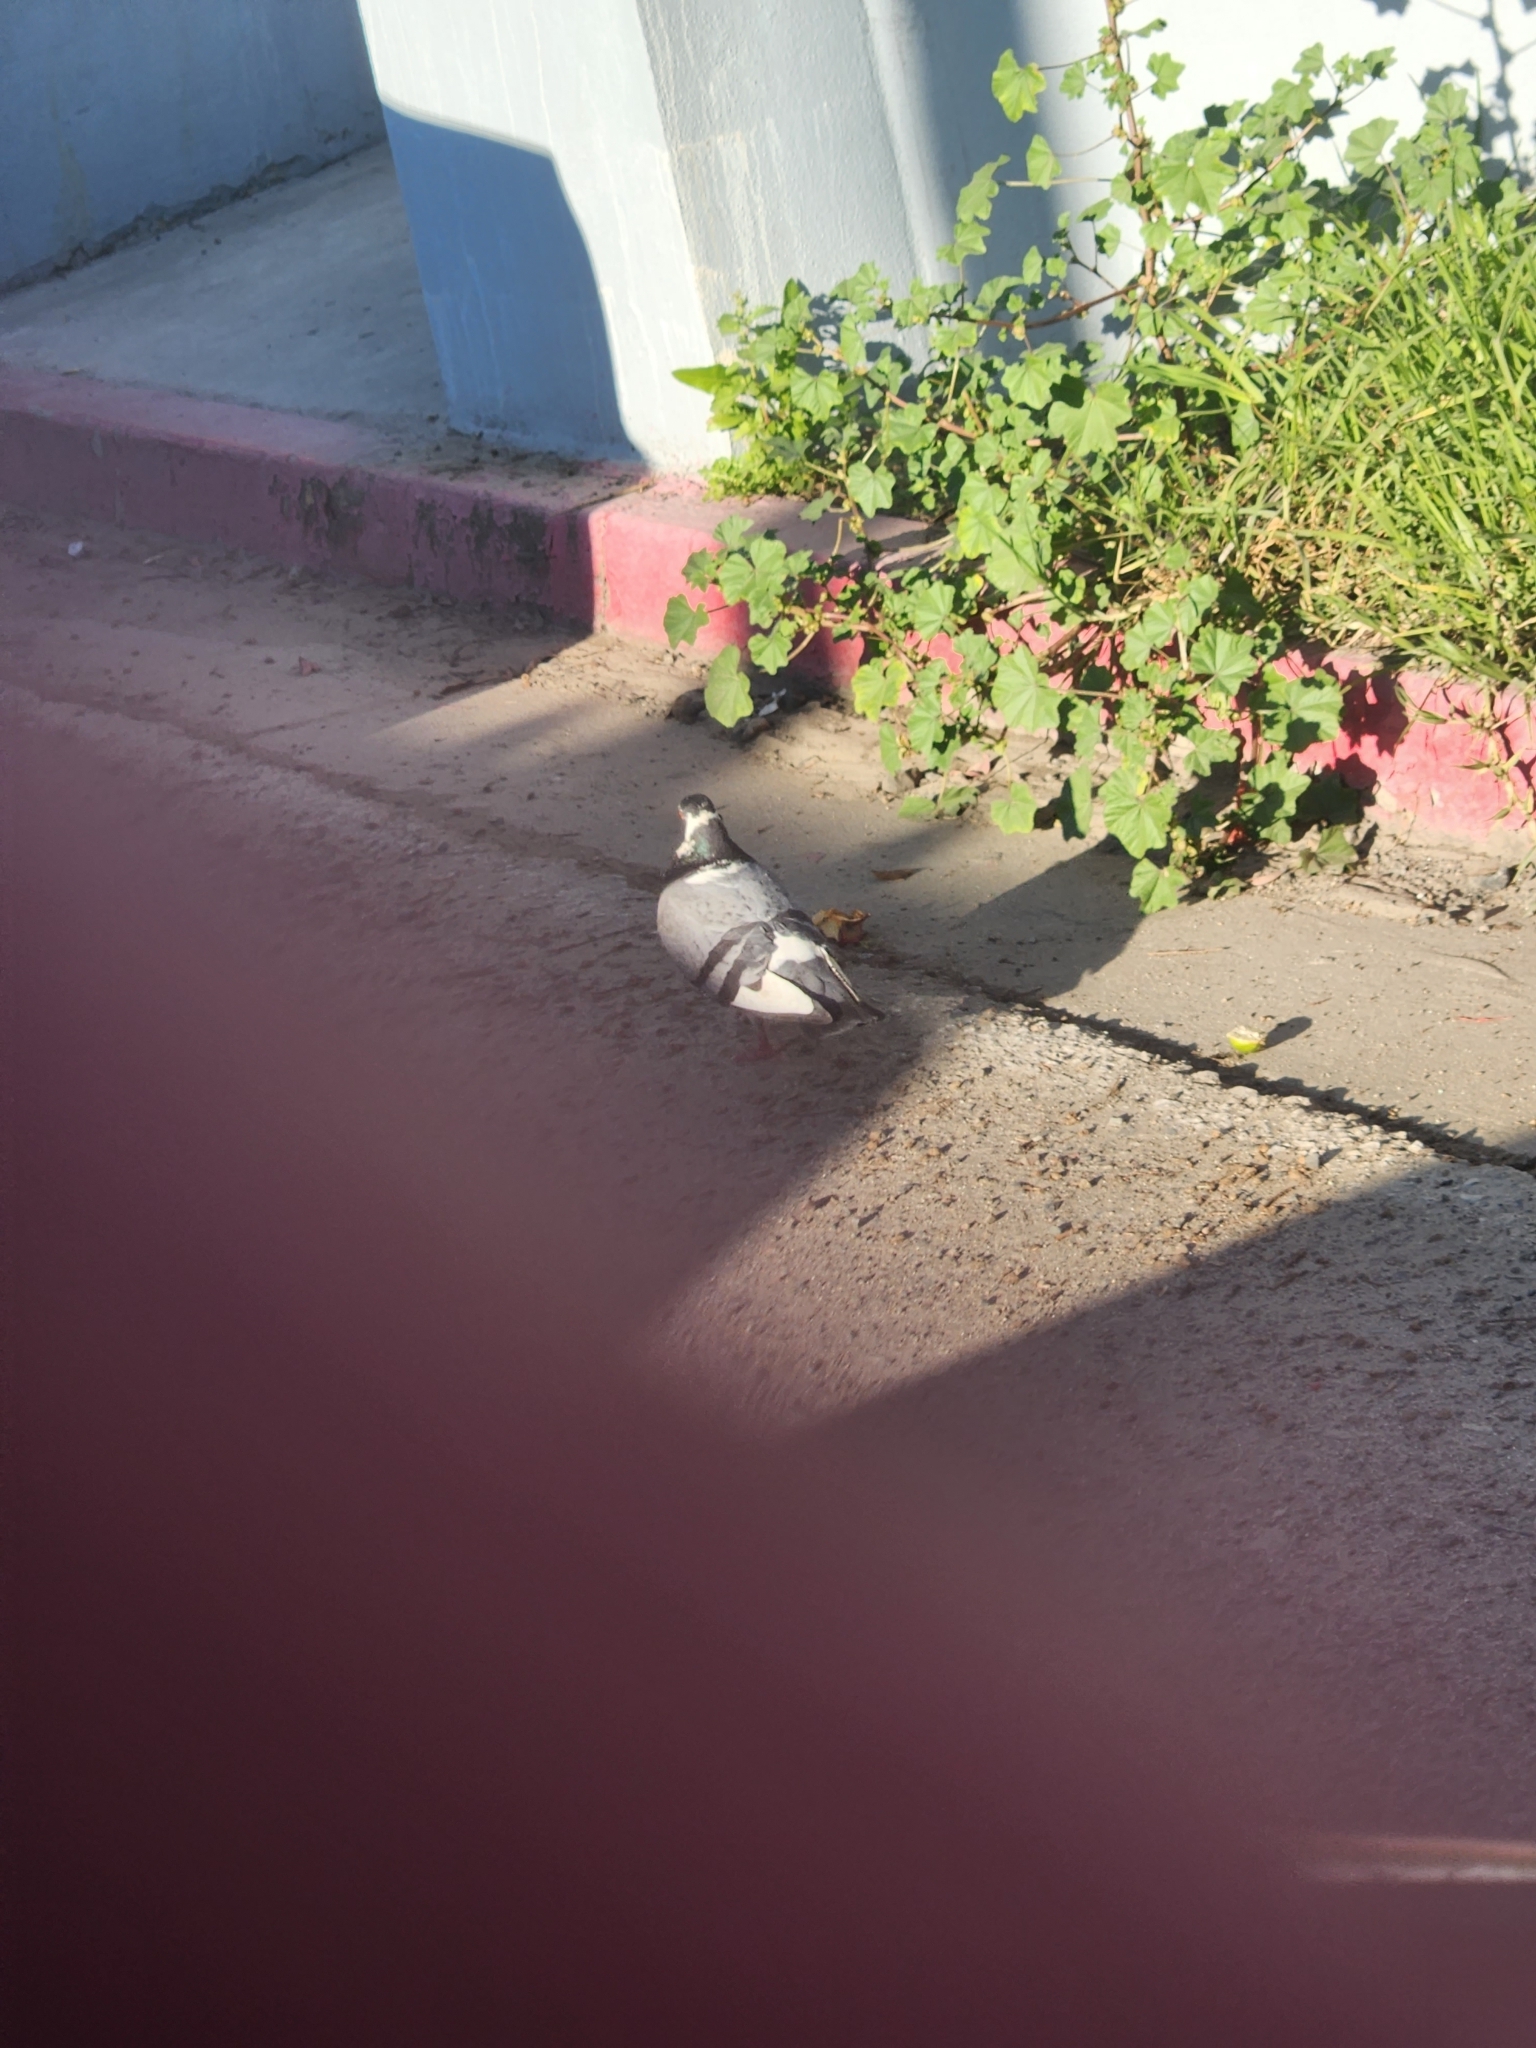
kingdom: Animalia
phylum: Chordata
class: Aves
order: Columbiformes
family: Columbidae
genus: Columba
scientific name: Columba livia
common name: Rock pigeon
